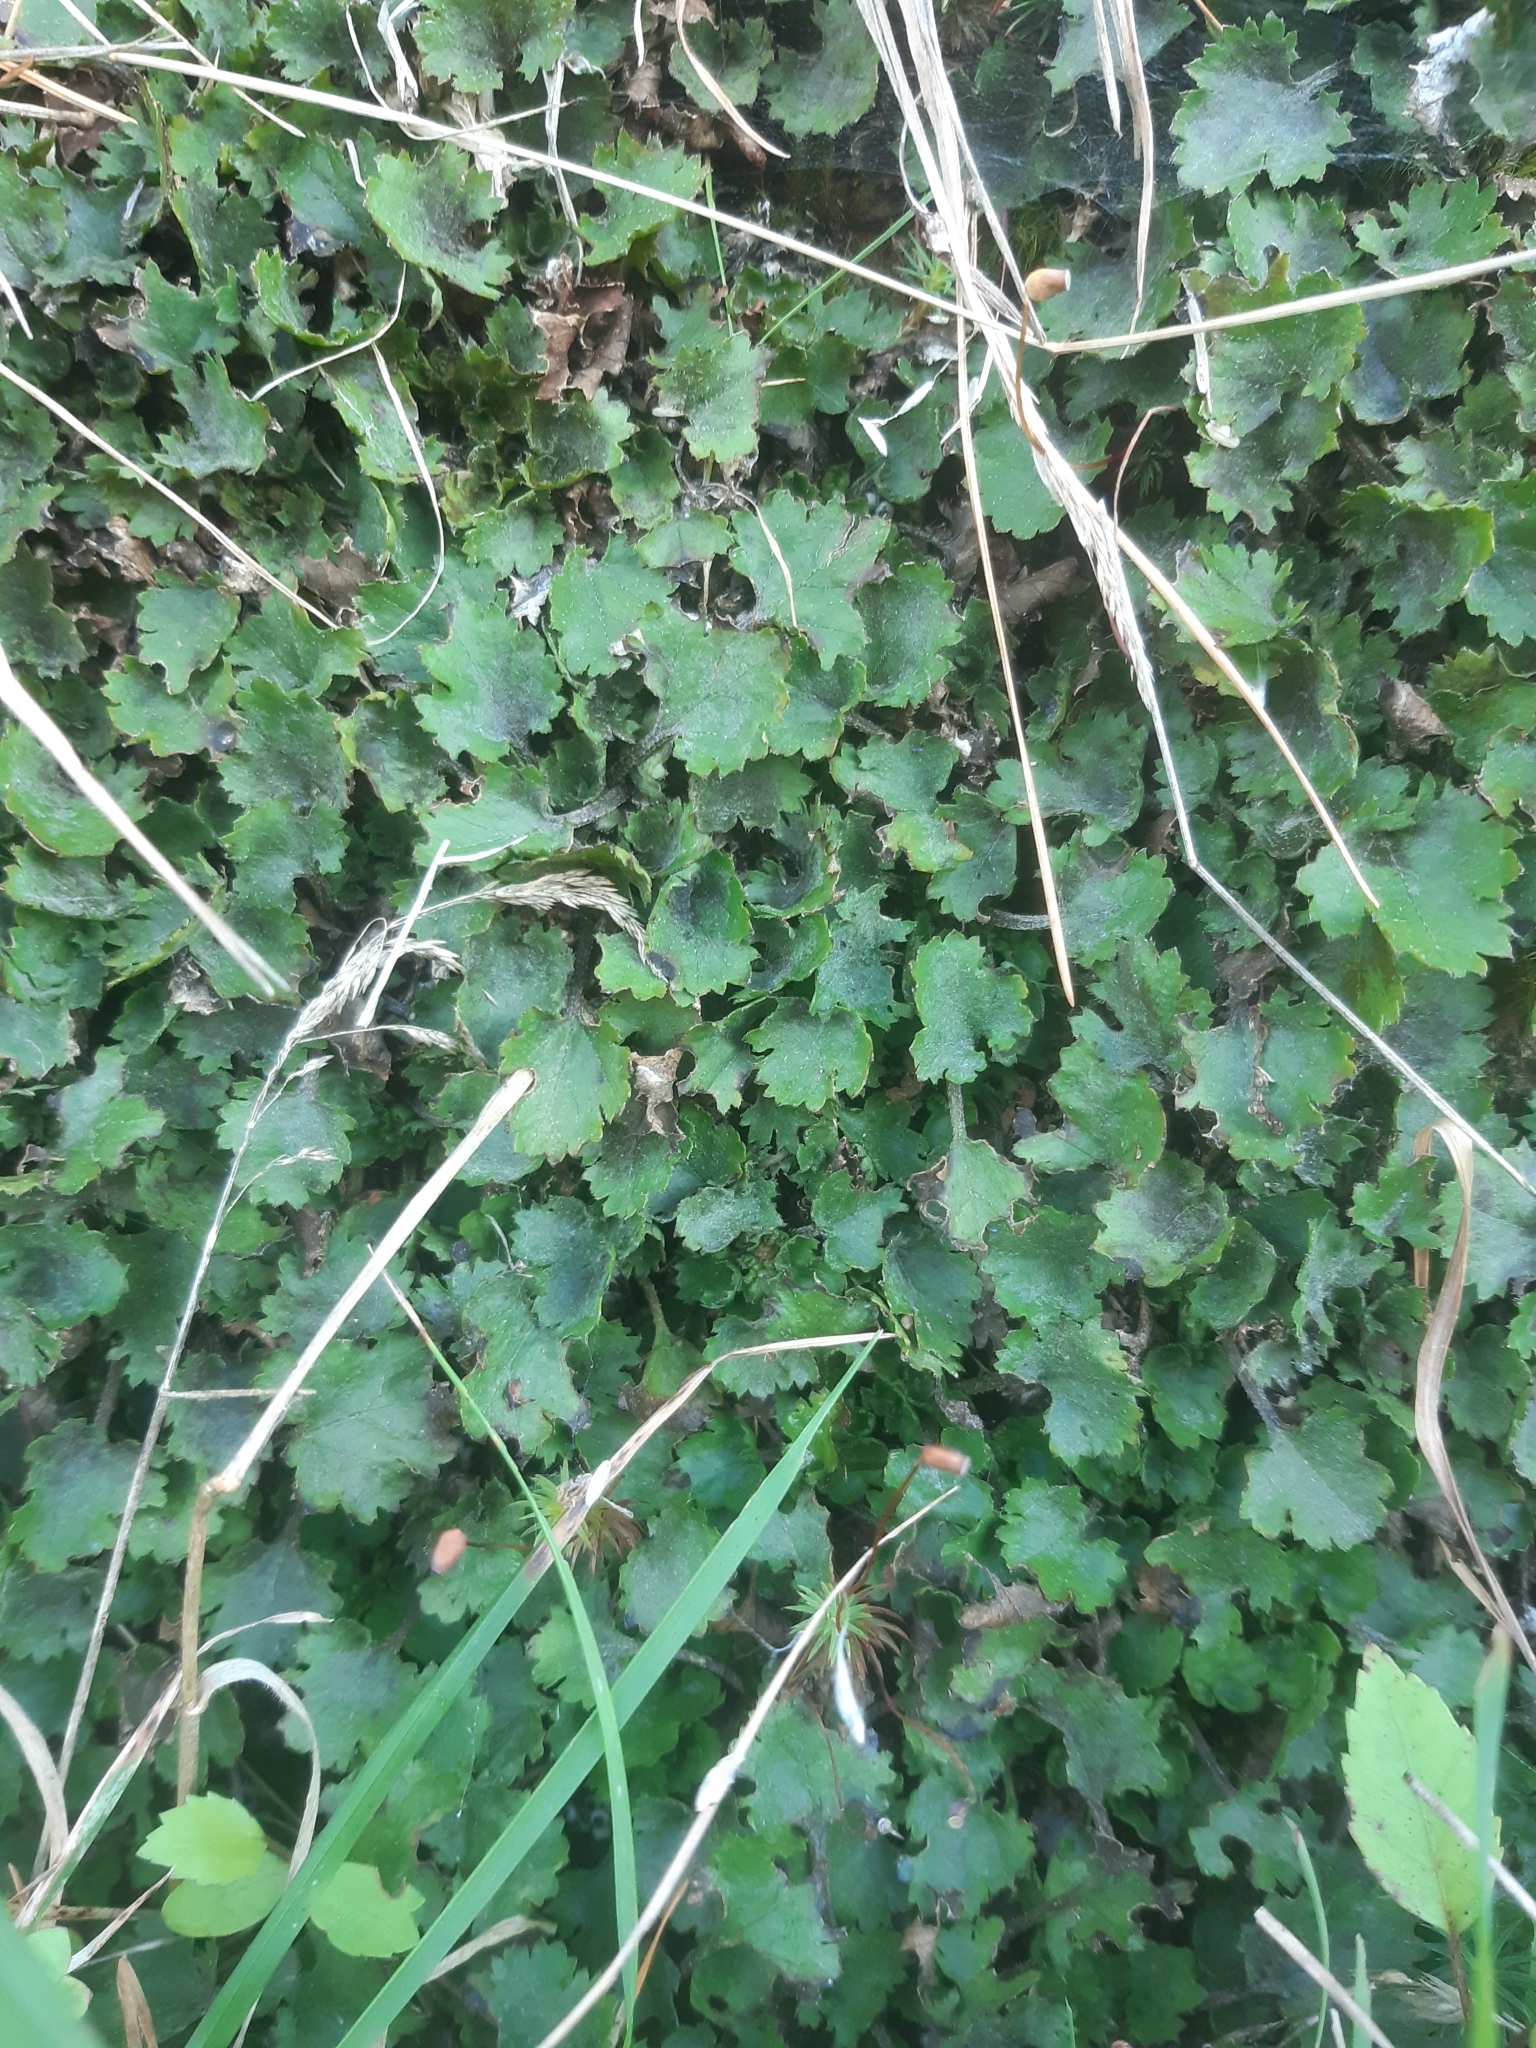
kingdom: Plantae
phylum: Tracheophyta
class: Magnoliopsida
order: Gunnerales
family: Gunneraceae
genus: Gunnera
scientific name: Gunnera monoica
